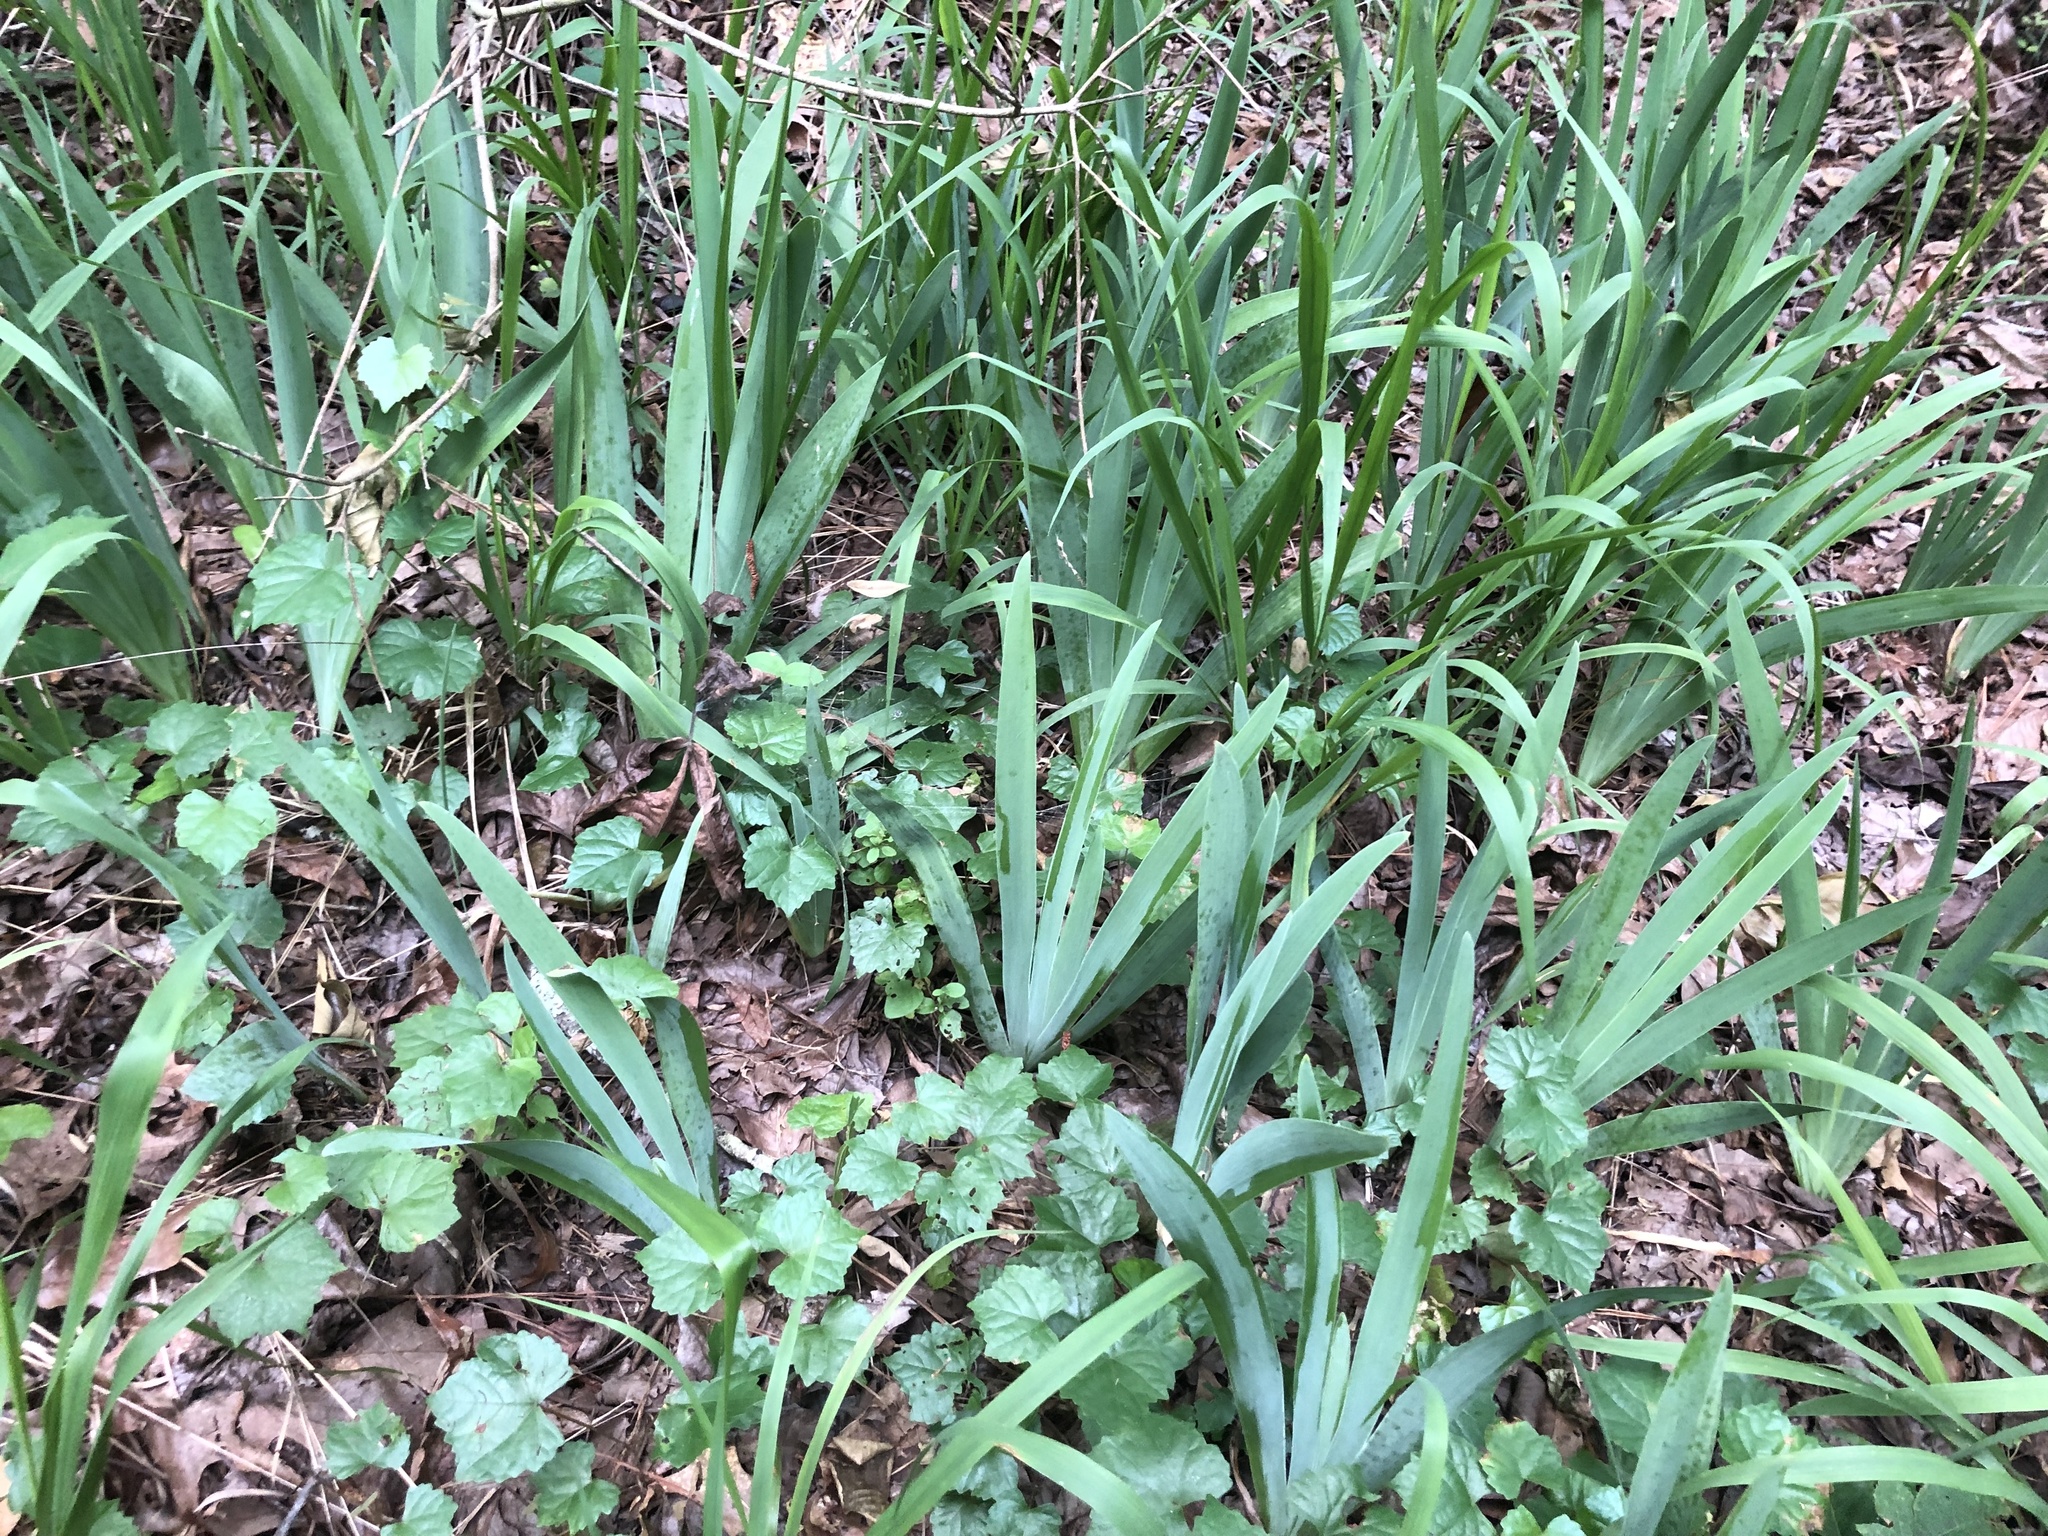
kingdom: Plantae
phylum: Tracheophyta
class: Liliopsida
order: Asparagales
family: Iridaceae
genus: Iris
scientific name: Iris germanica
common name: German iris
